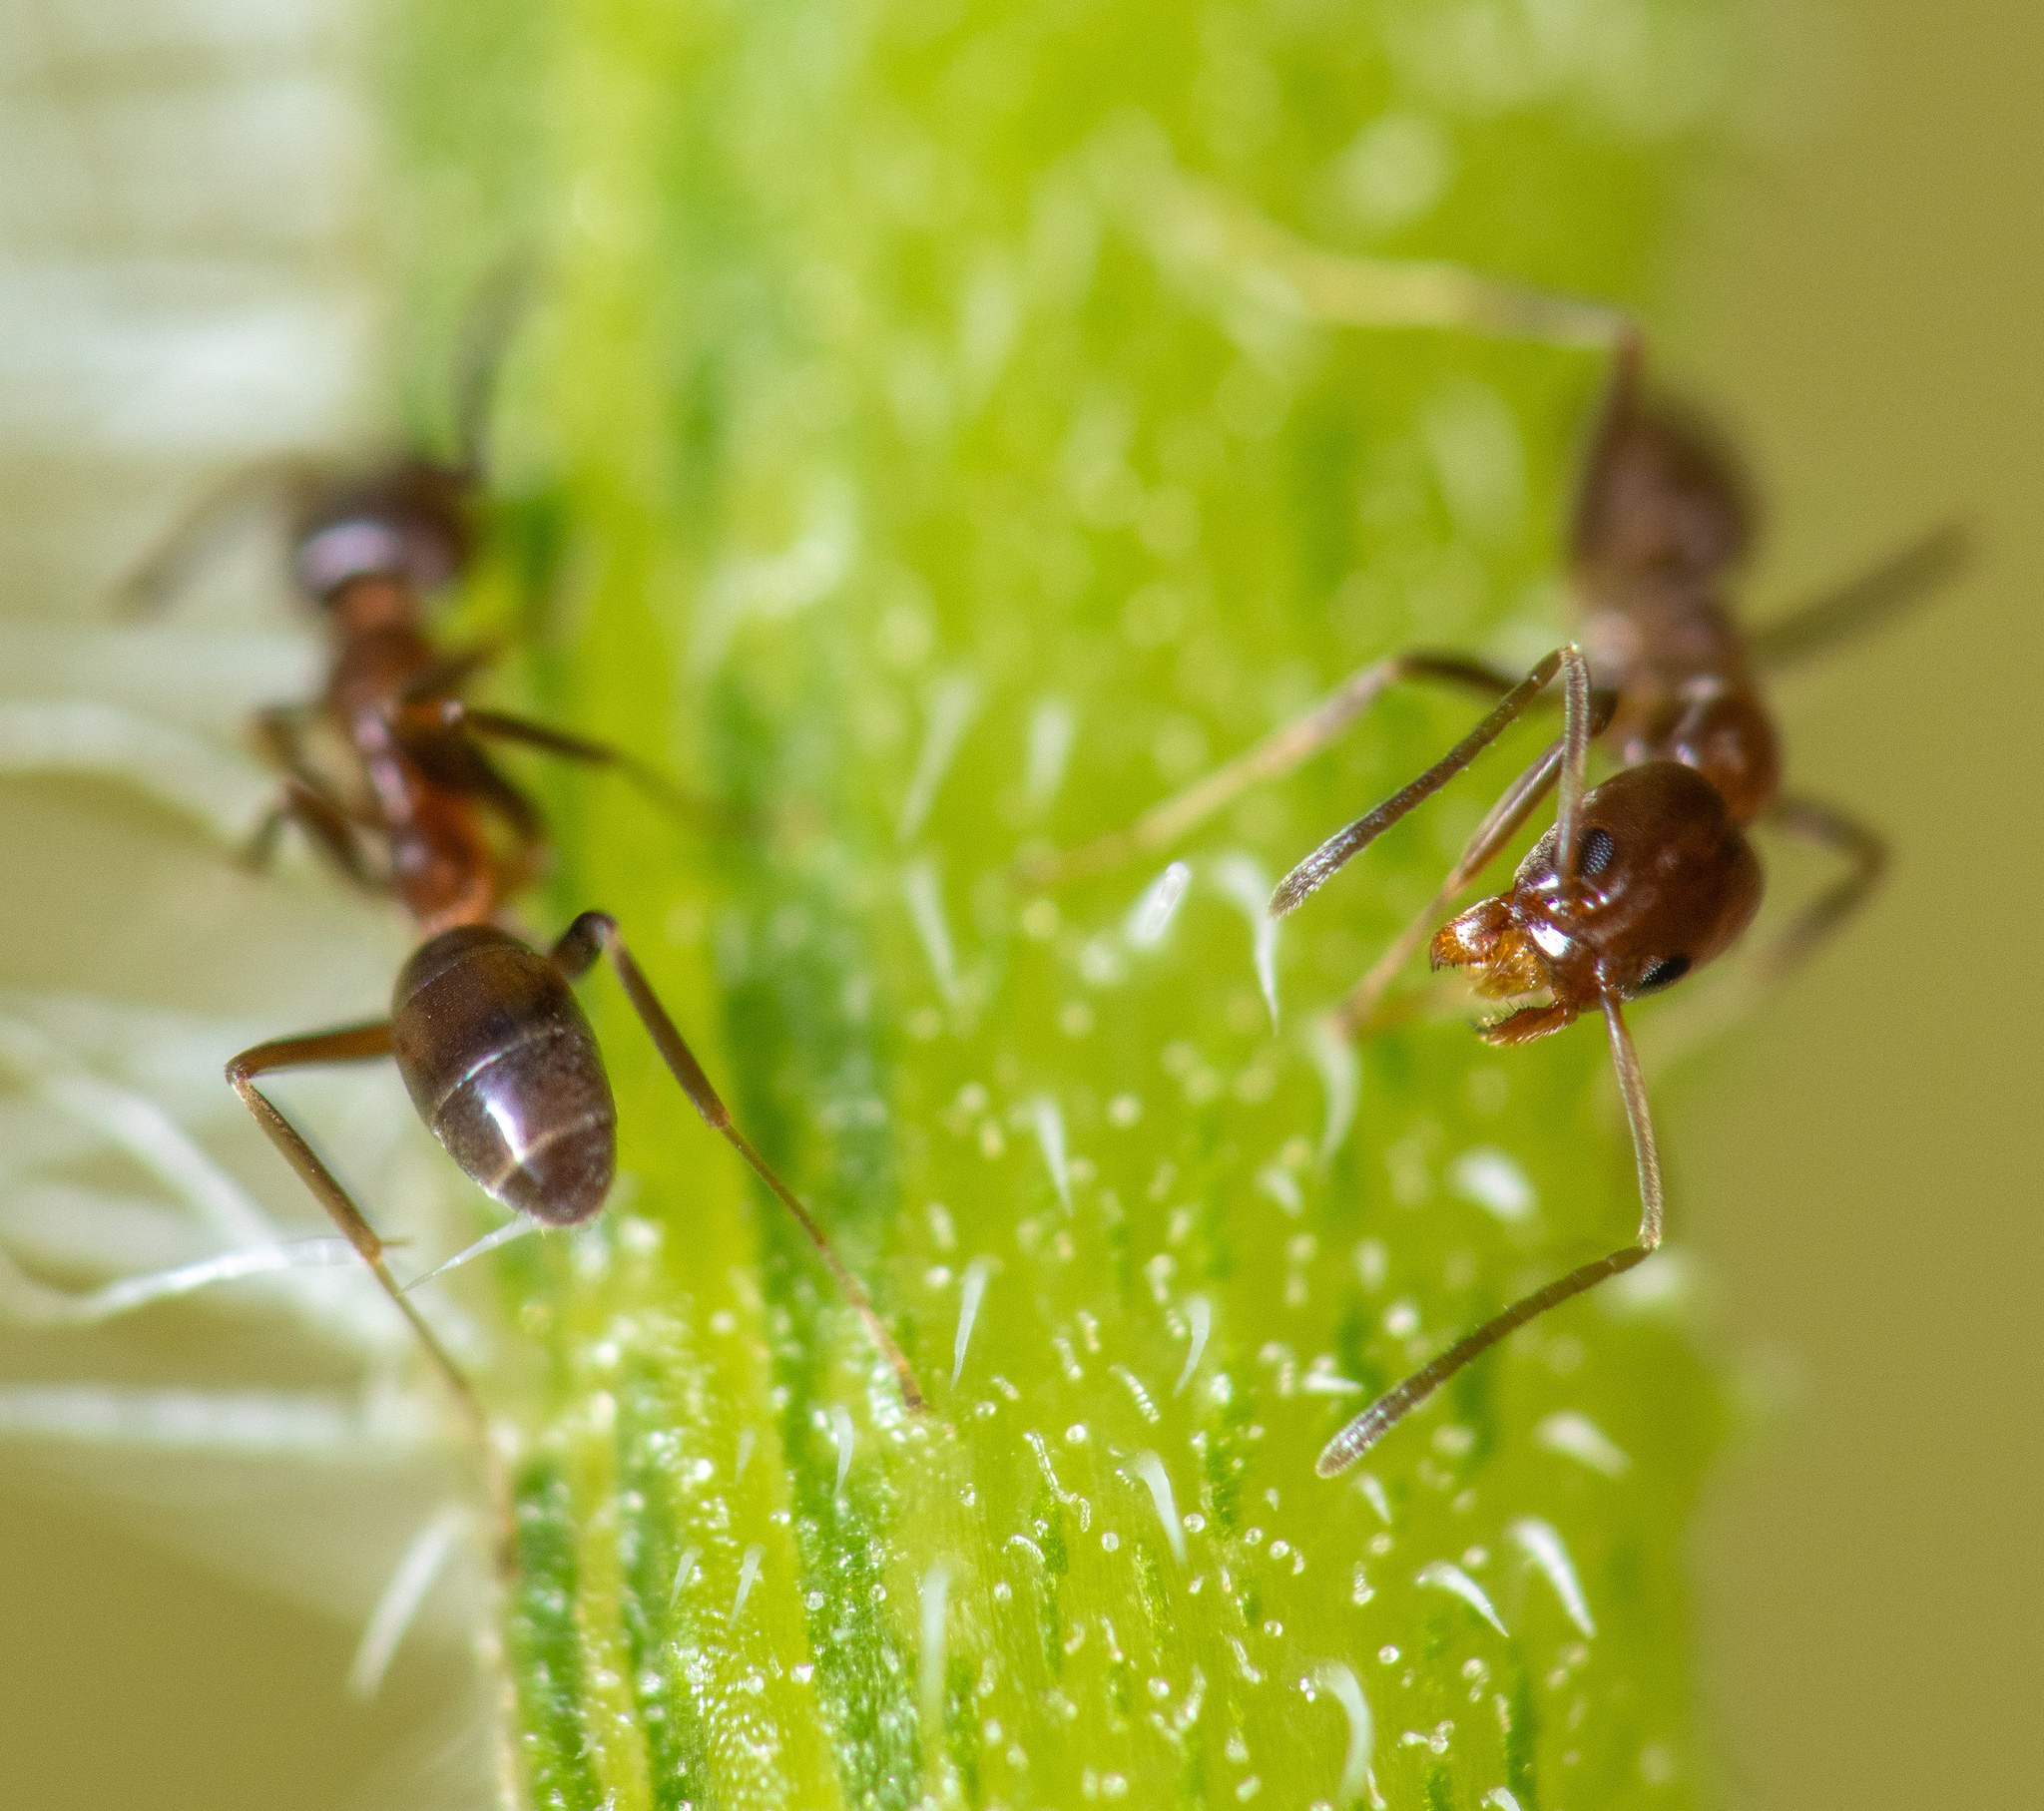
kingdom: Animalia
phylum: Arthropoda
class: Insecta
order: Hymenoptera
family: Formicidae
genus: Linepithema
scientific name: Linepithema humile
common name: Argentine ant
